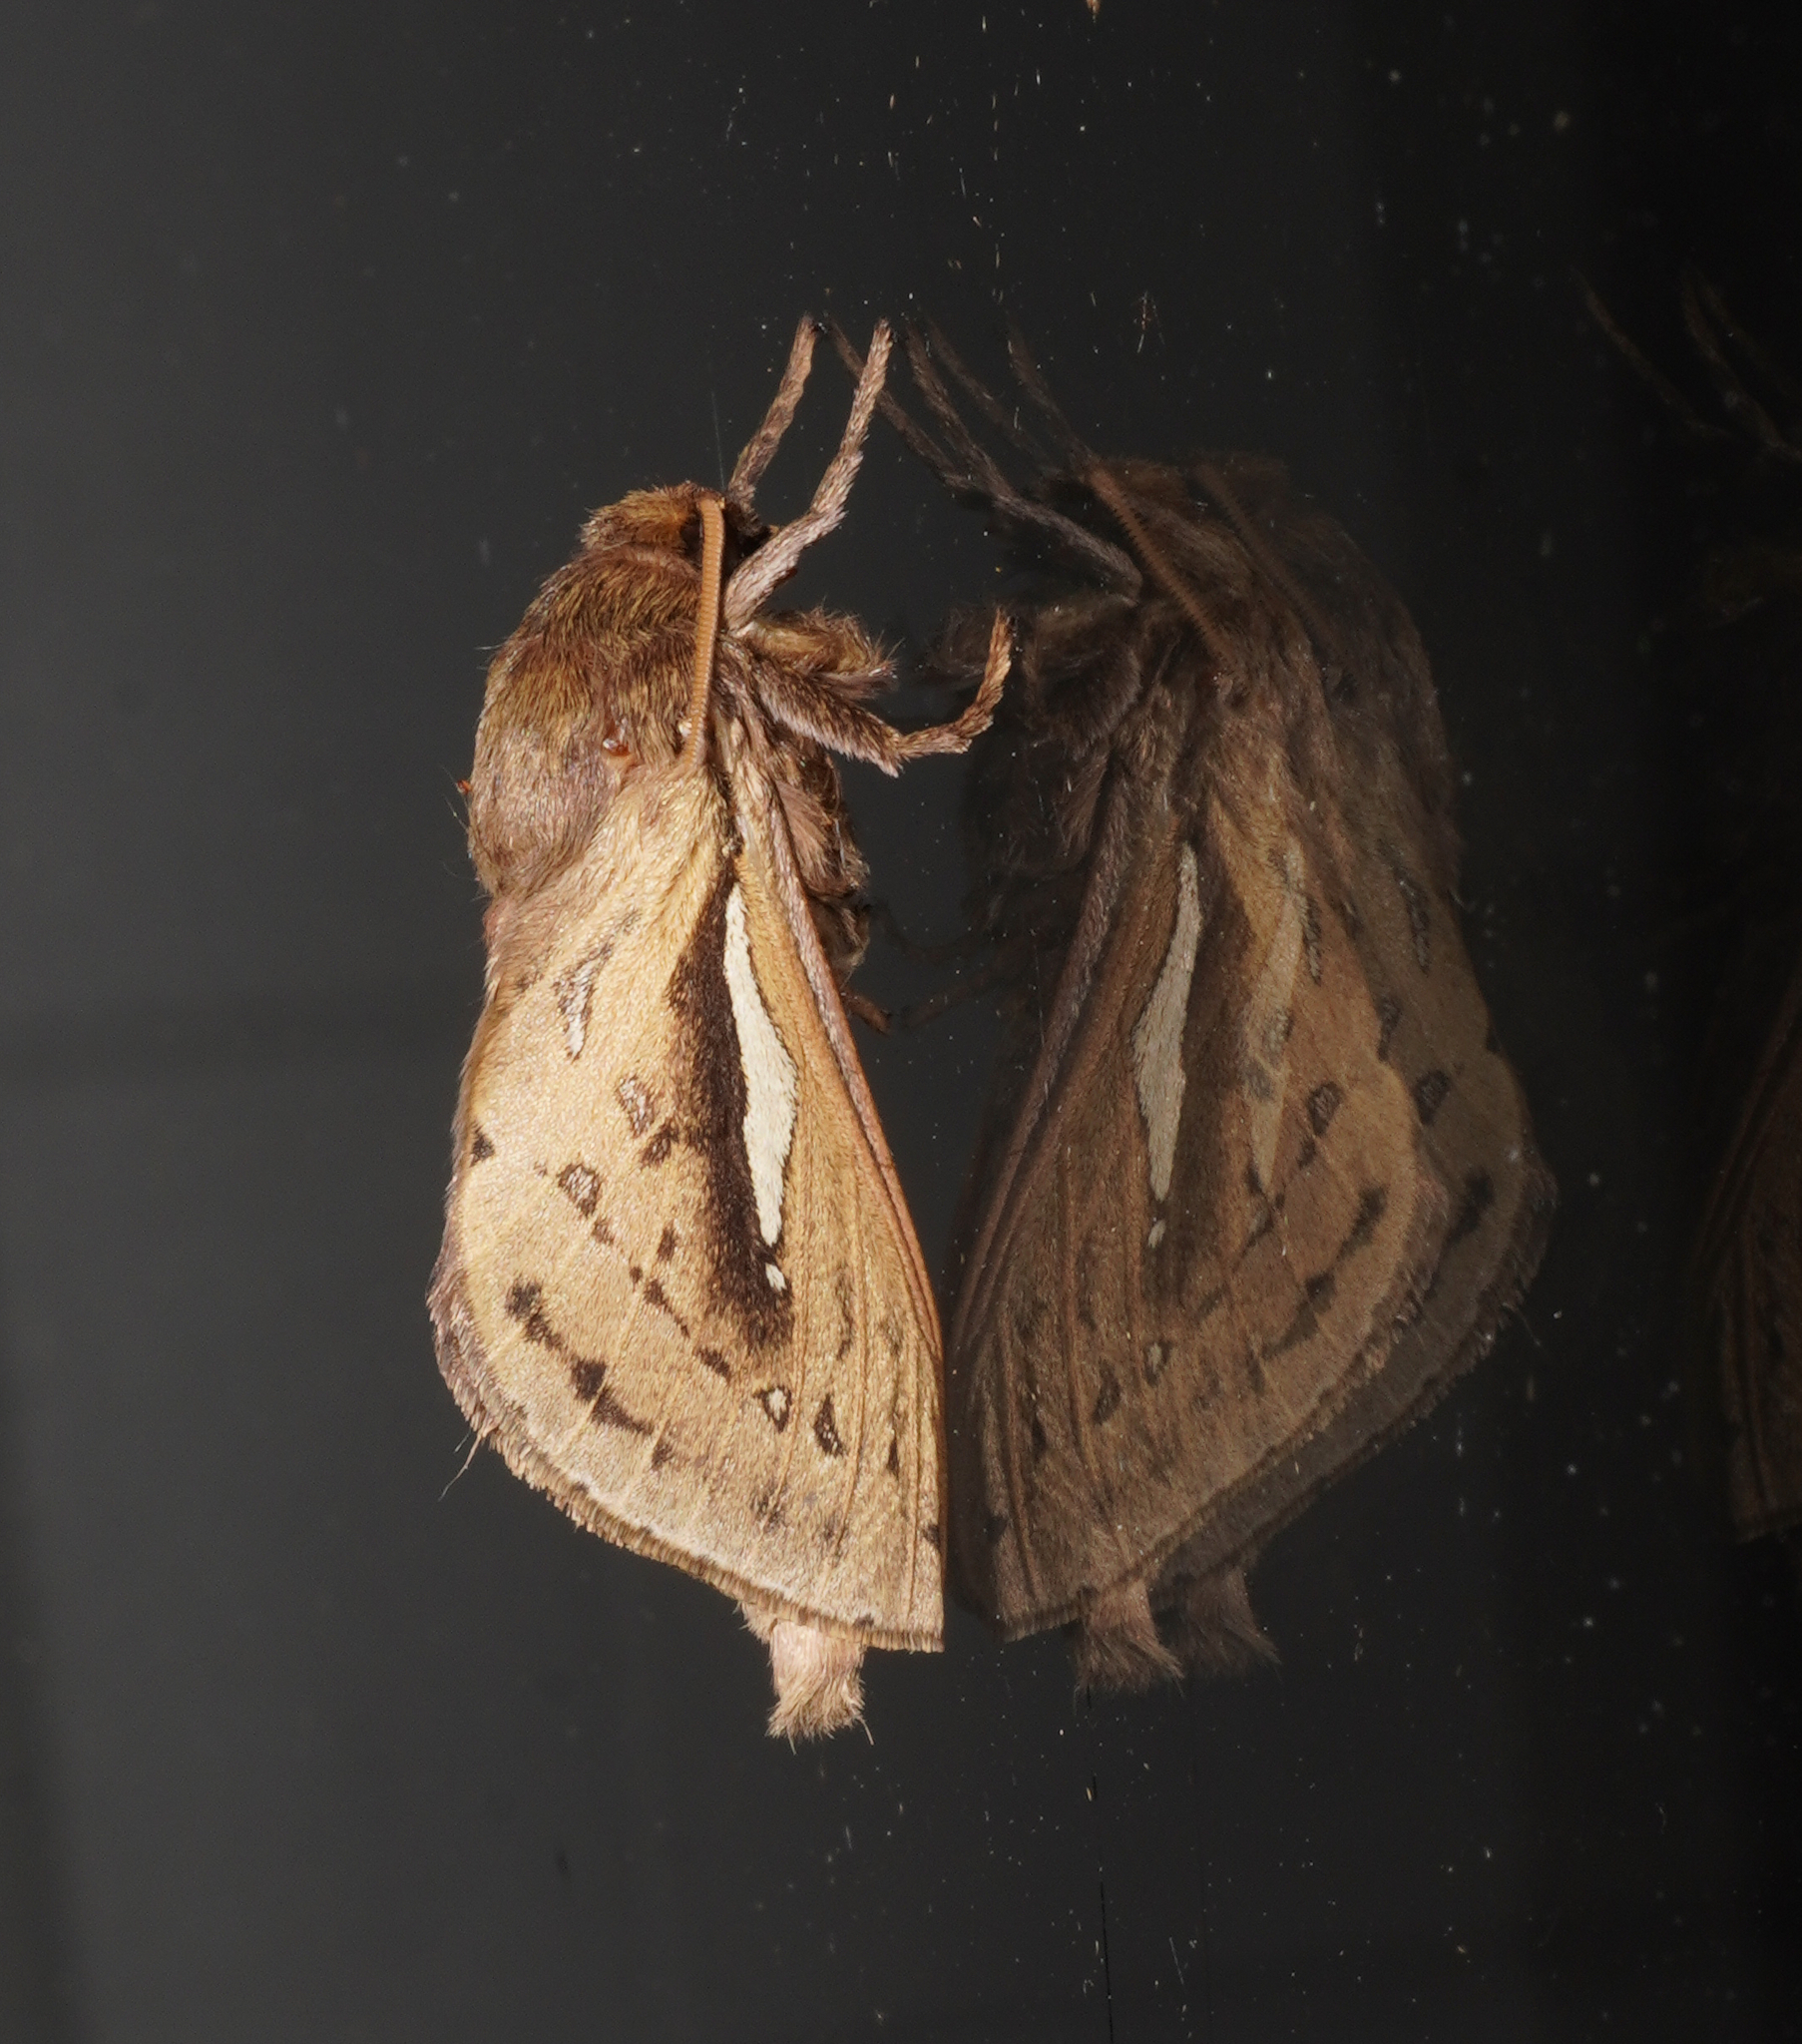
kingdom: Animalia
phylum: Arthropoda
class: Insecta
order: Lepidoptera
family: Hepialidae
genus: Wiseana
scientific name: Wiseana umbraculatus
